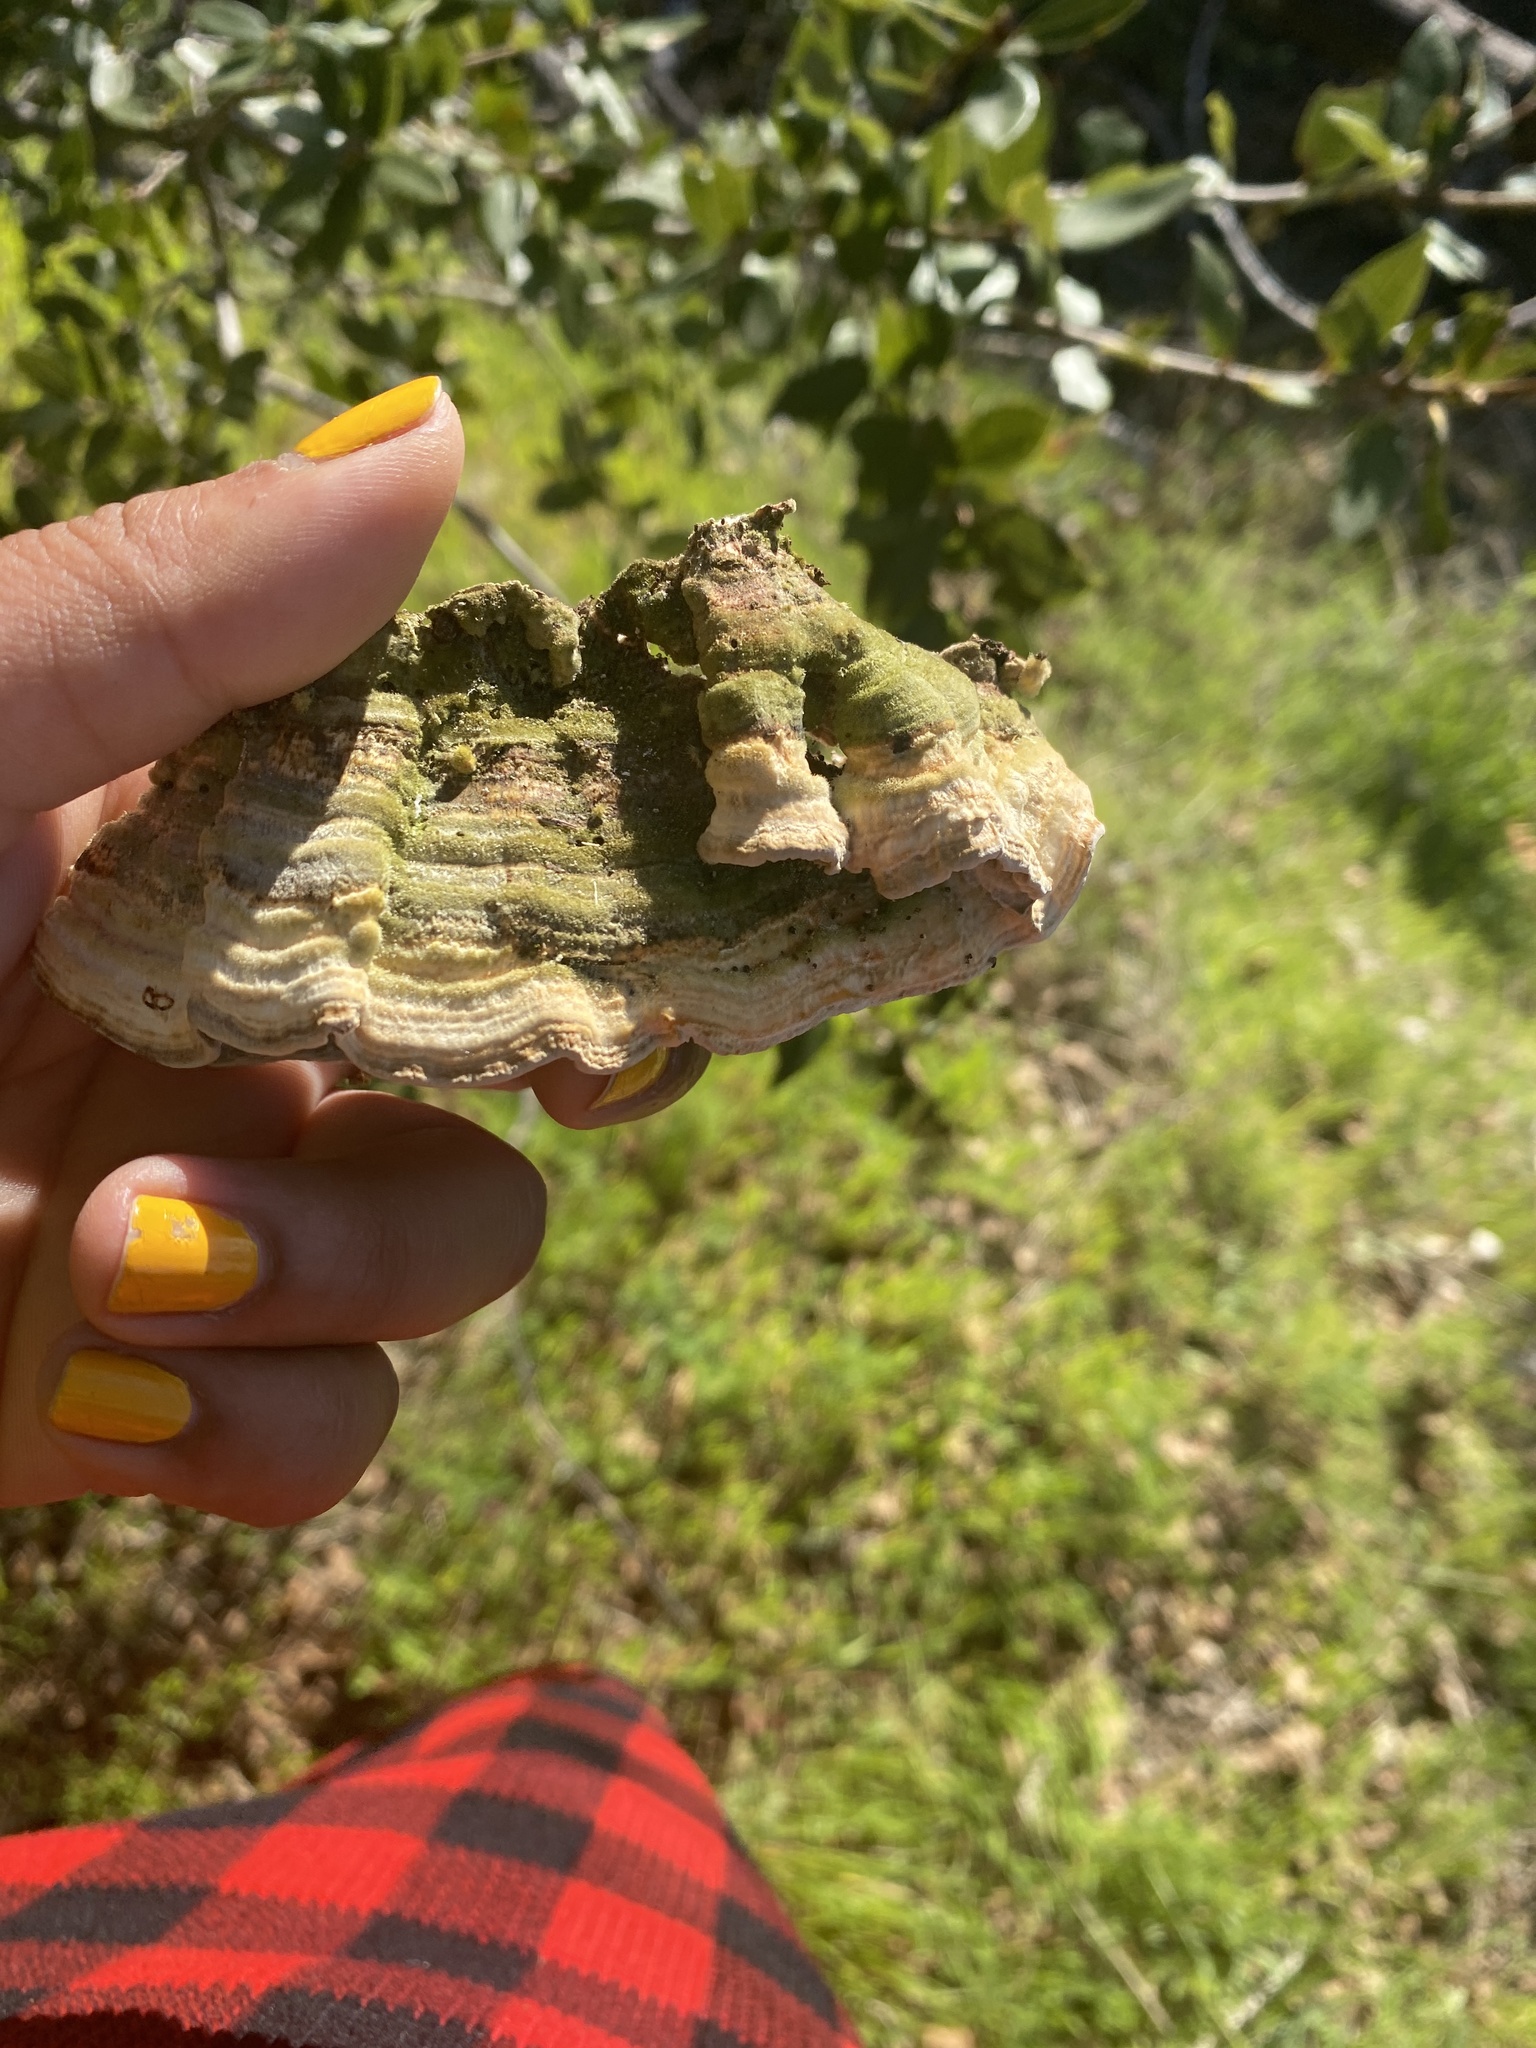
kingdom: Fungi
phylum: Basidiomycota
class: Agaricomycetes
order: Polyporales
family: Polyporaceae
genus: Lenzites
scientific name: Lenzites betulinus
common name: Birch mazegill
